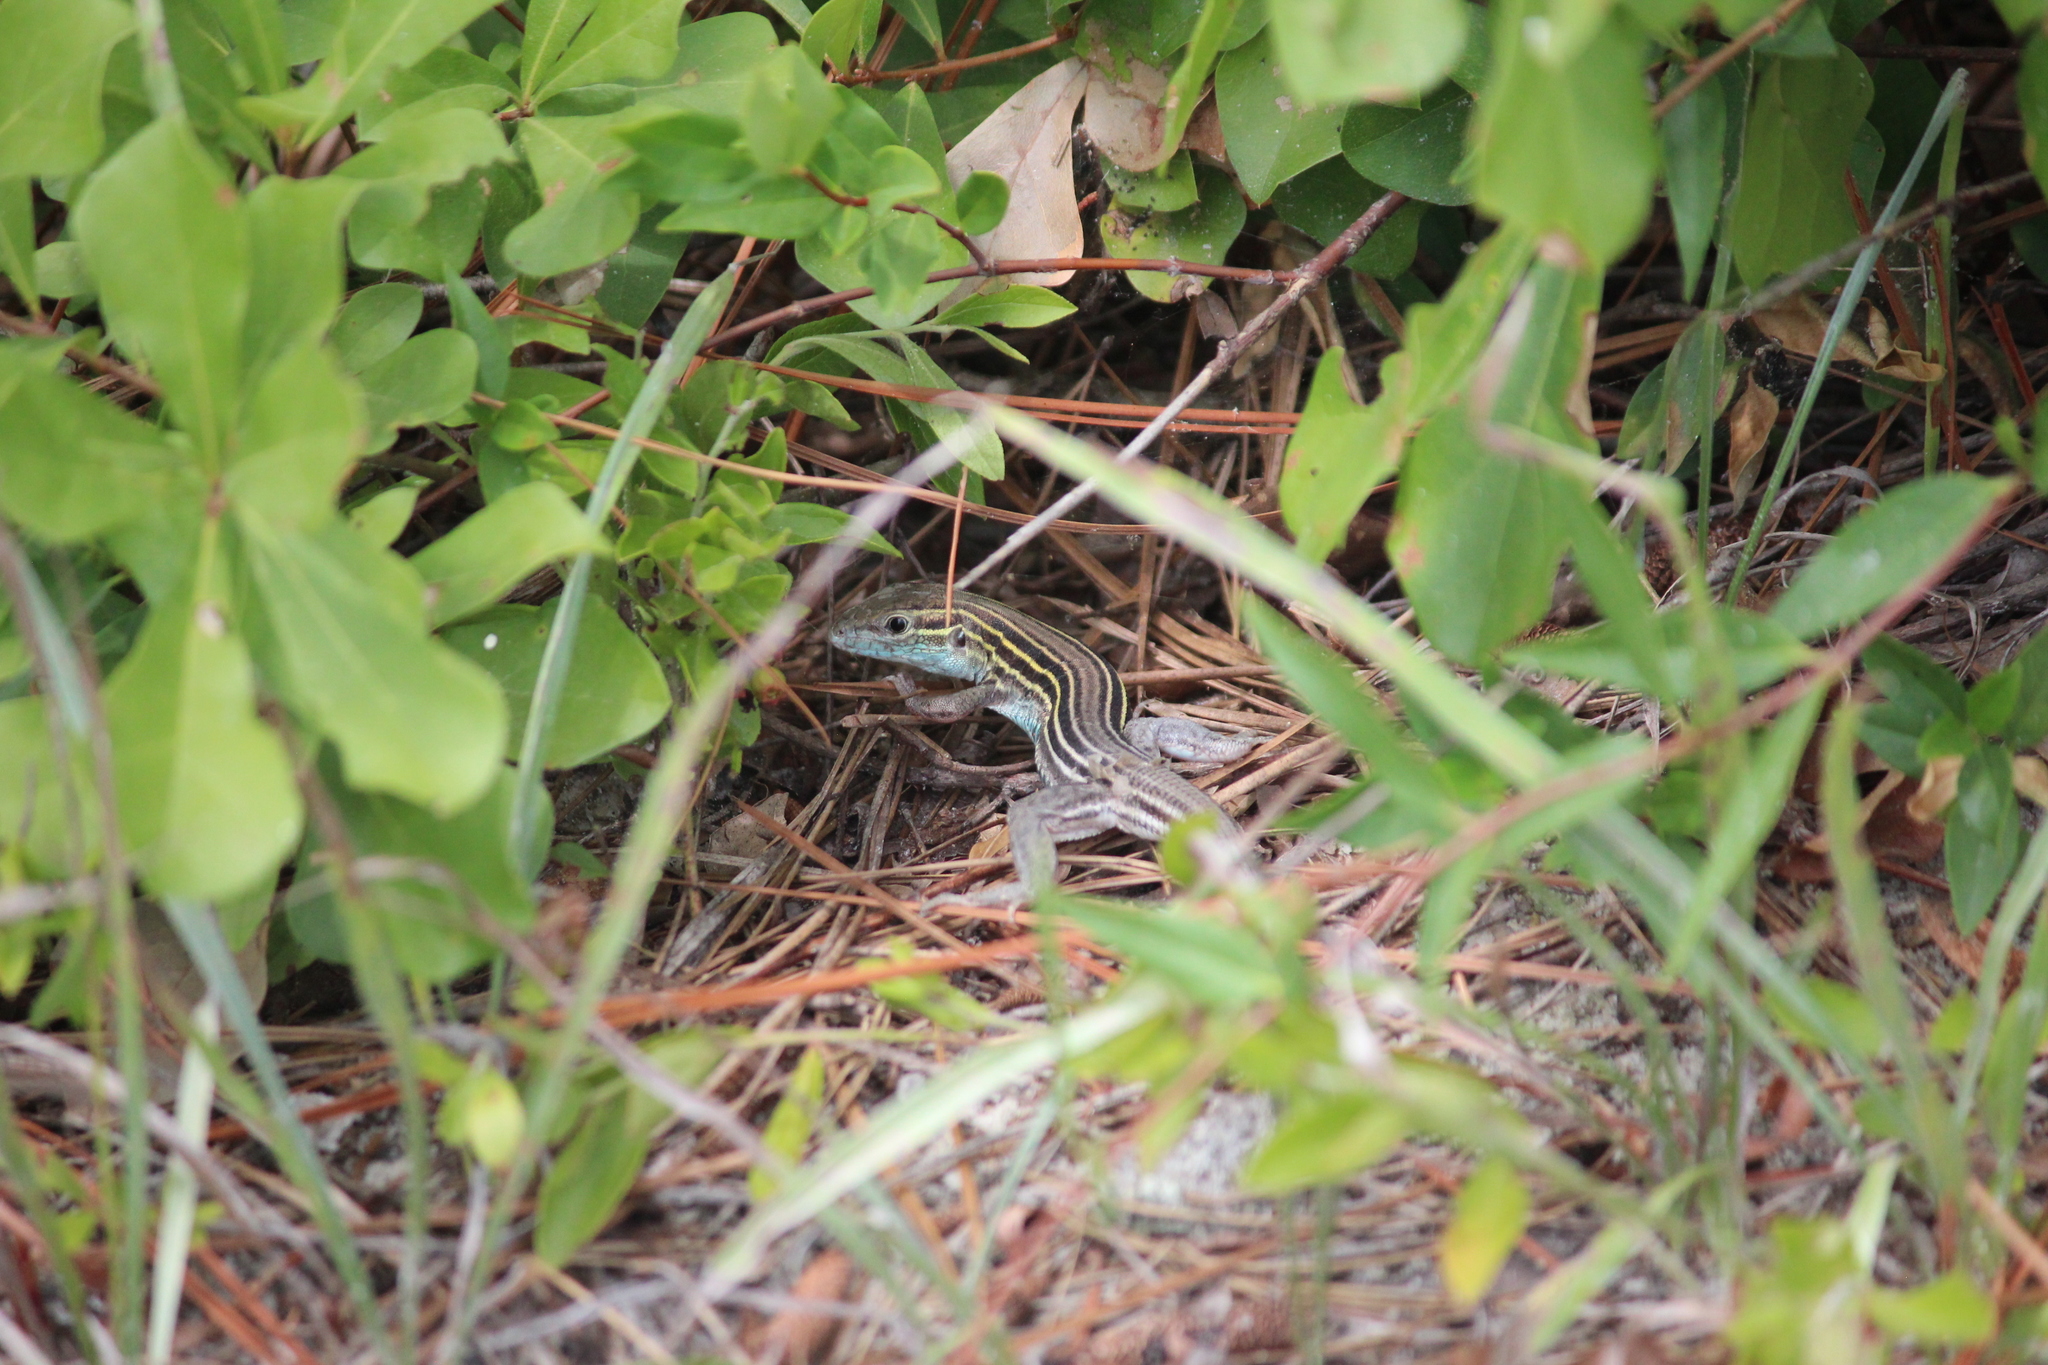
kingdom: Animalia
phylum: Chordata
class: Squamata
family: Teiidae
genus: Aspidoscelis
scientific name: Aspidoscelis sexlineatus
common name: Six-lined racerunner
